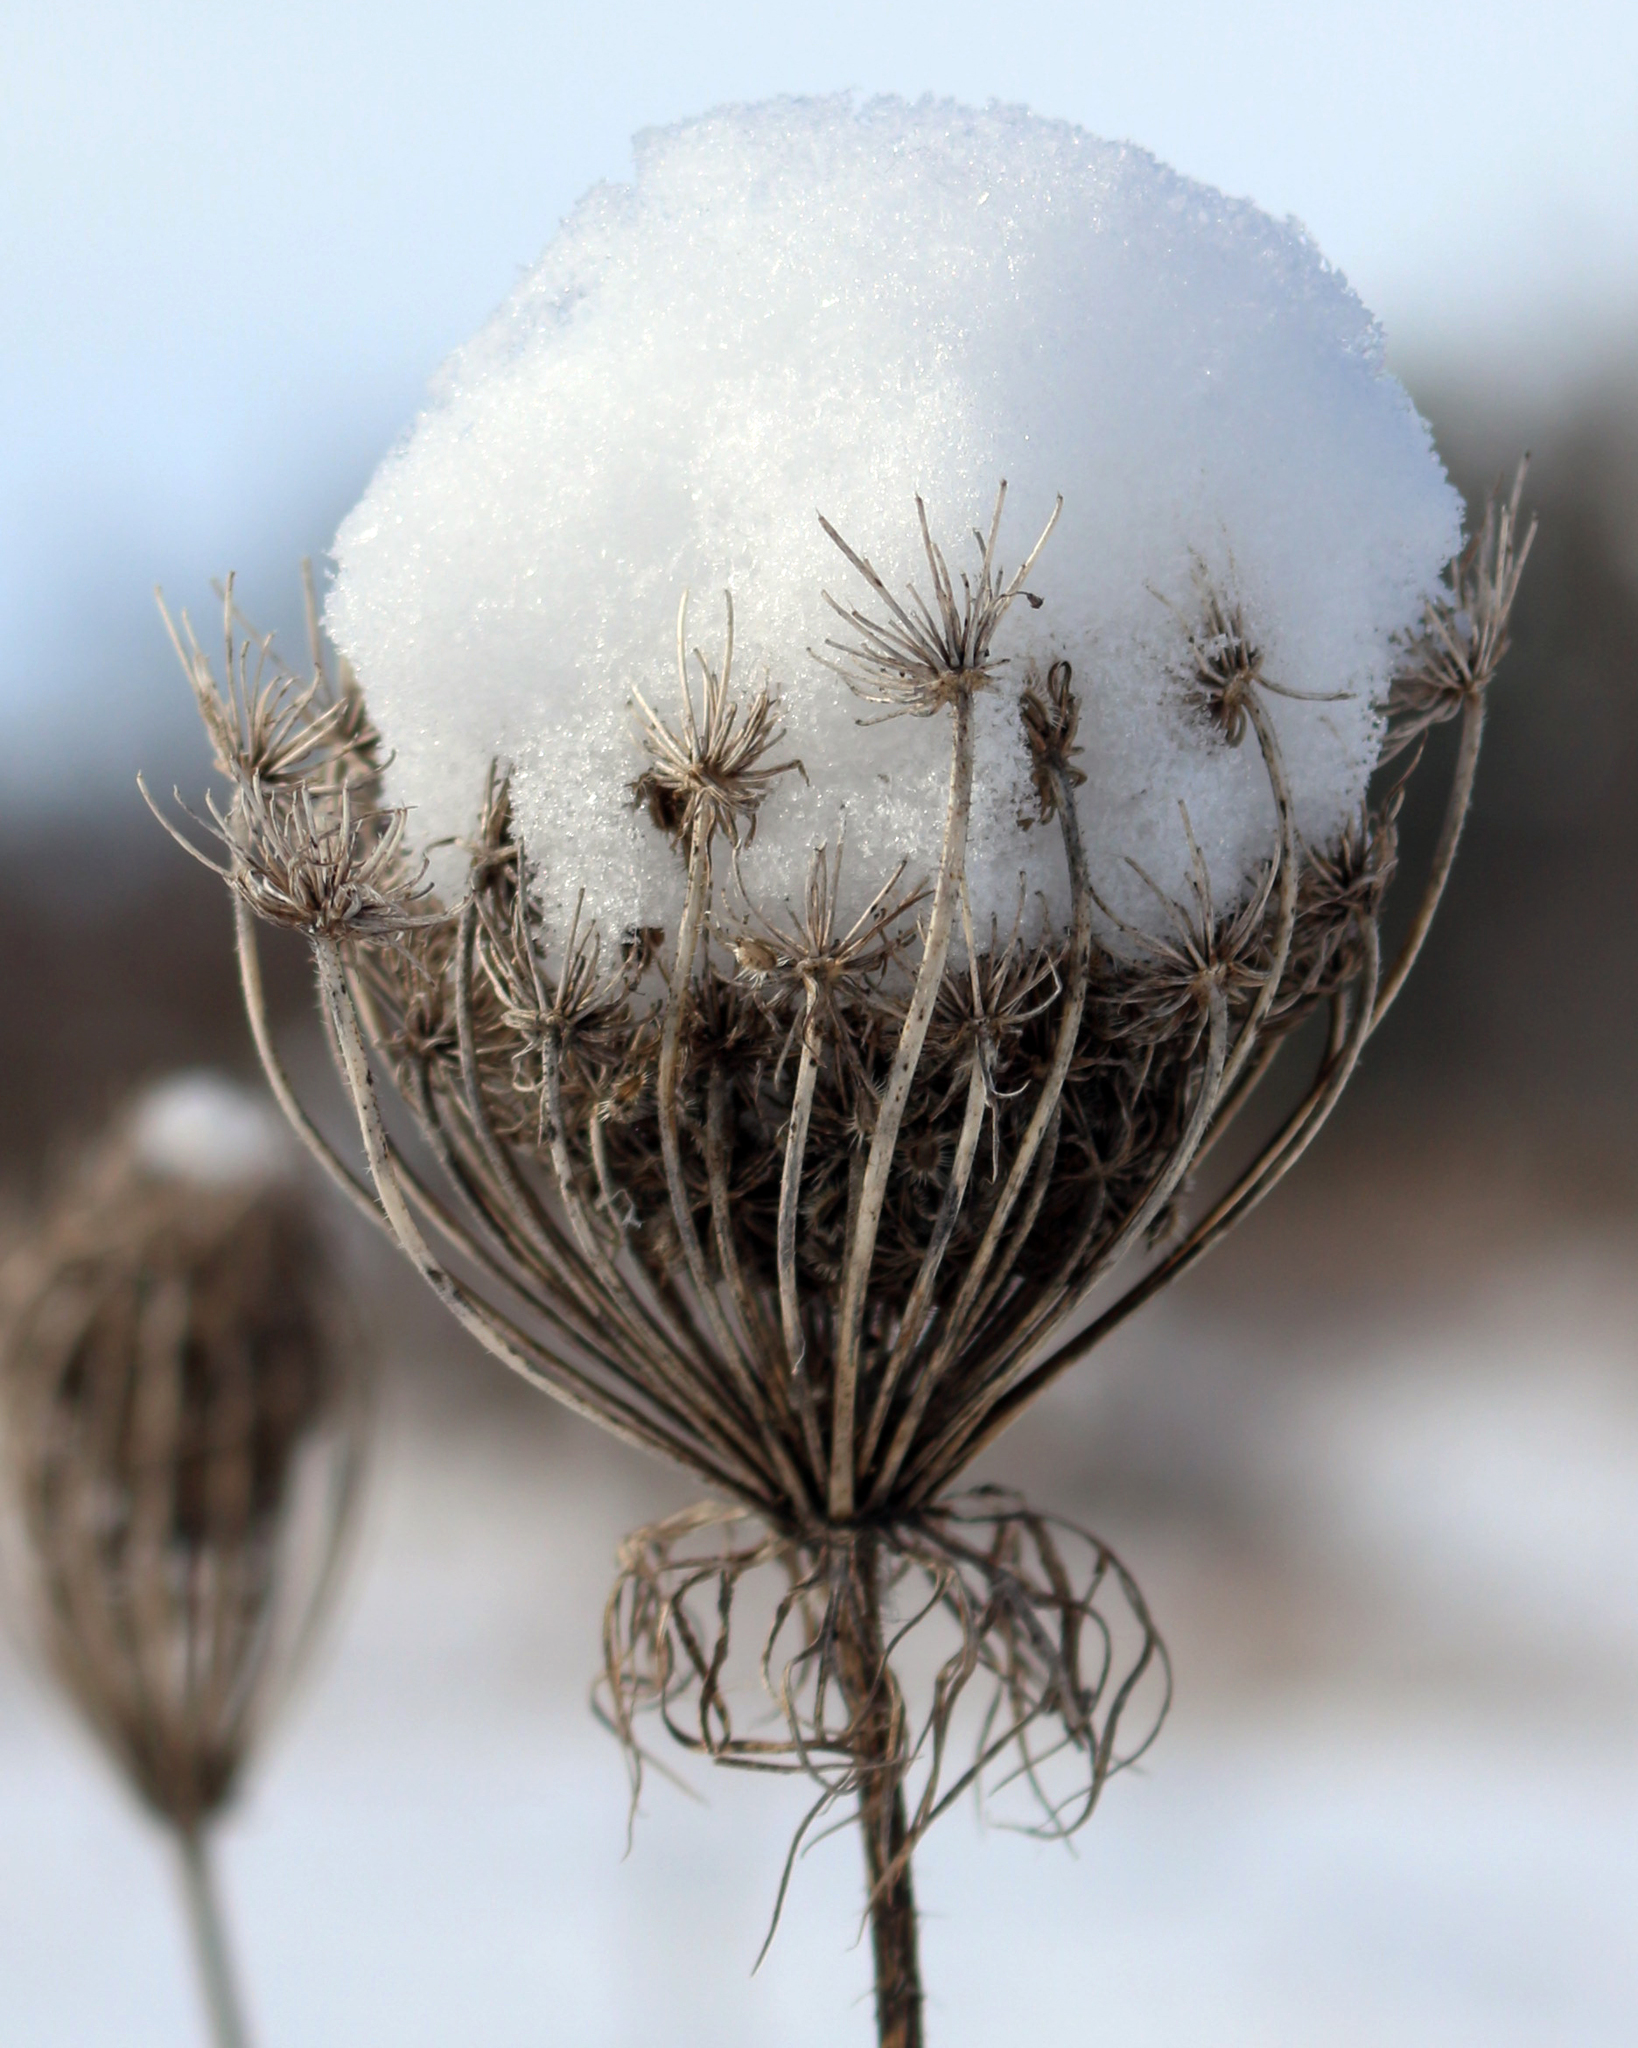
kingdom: Plantae
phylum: Tracheophyta
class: Magnoliopsida
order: Apiales
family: Apiaceae
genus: Daucus
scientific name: Daucus carota
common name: Wild carrot
